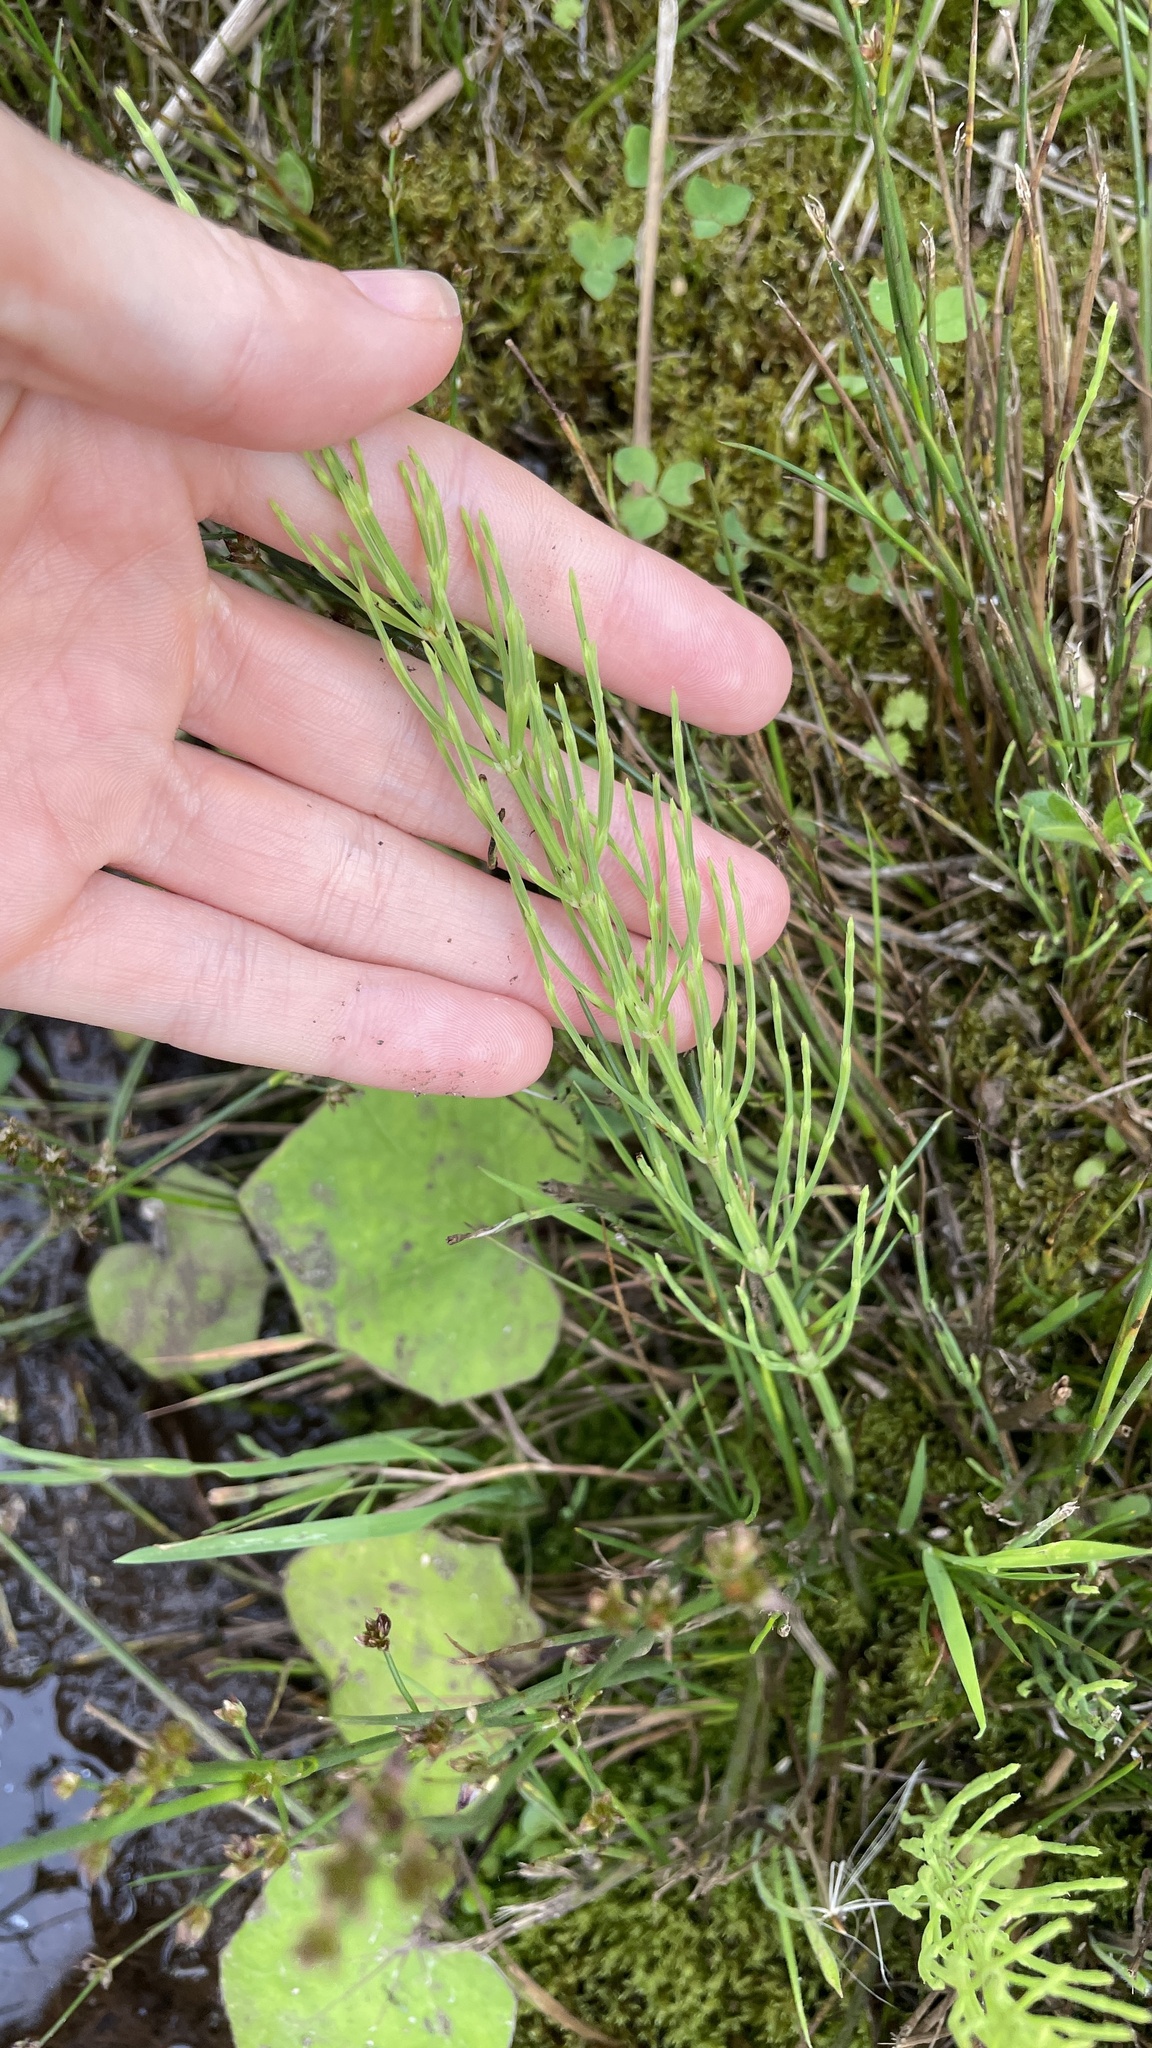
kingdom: Plantae
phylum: Tracheophyta
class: Polypodiopsida
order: Equisetales
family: Equisetaceae
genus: Equisetum
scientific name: Equisetum arvense
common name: Field horsetail
